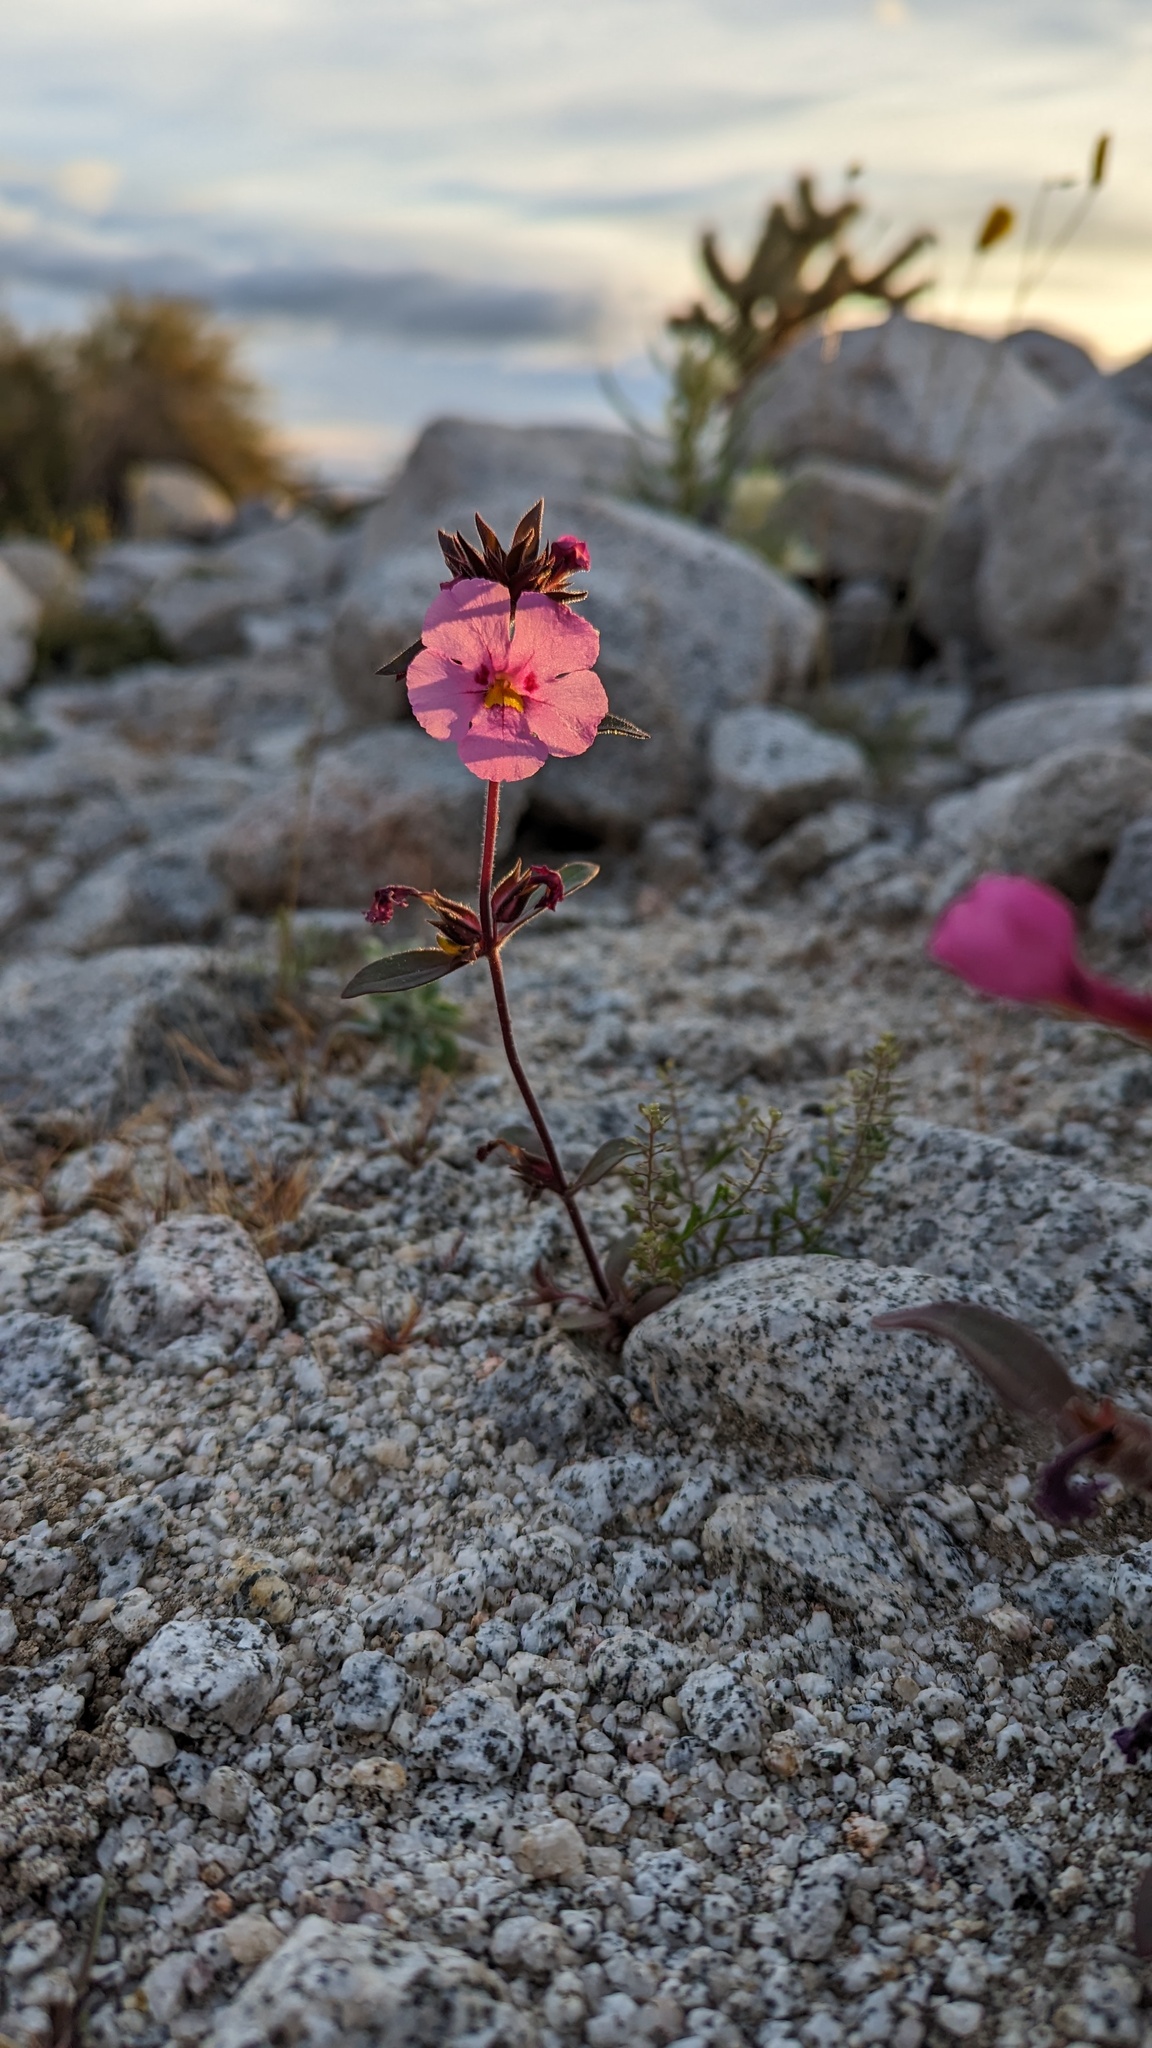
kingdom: Plantae
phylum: Tracheophyta
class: Magnoliopsida
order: Lamiales
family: Phrymaceae
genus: Diplacus
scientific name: Diplacus bigelovii
